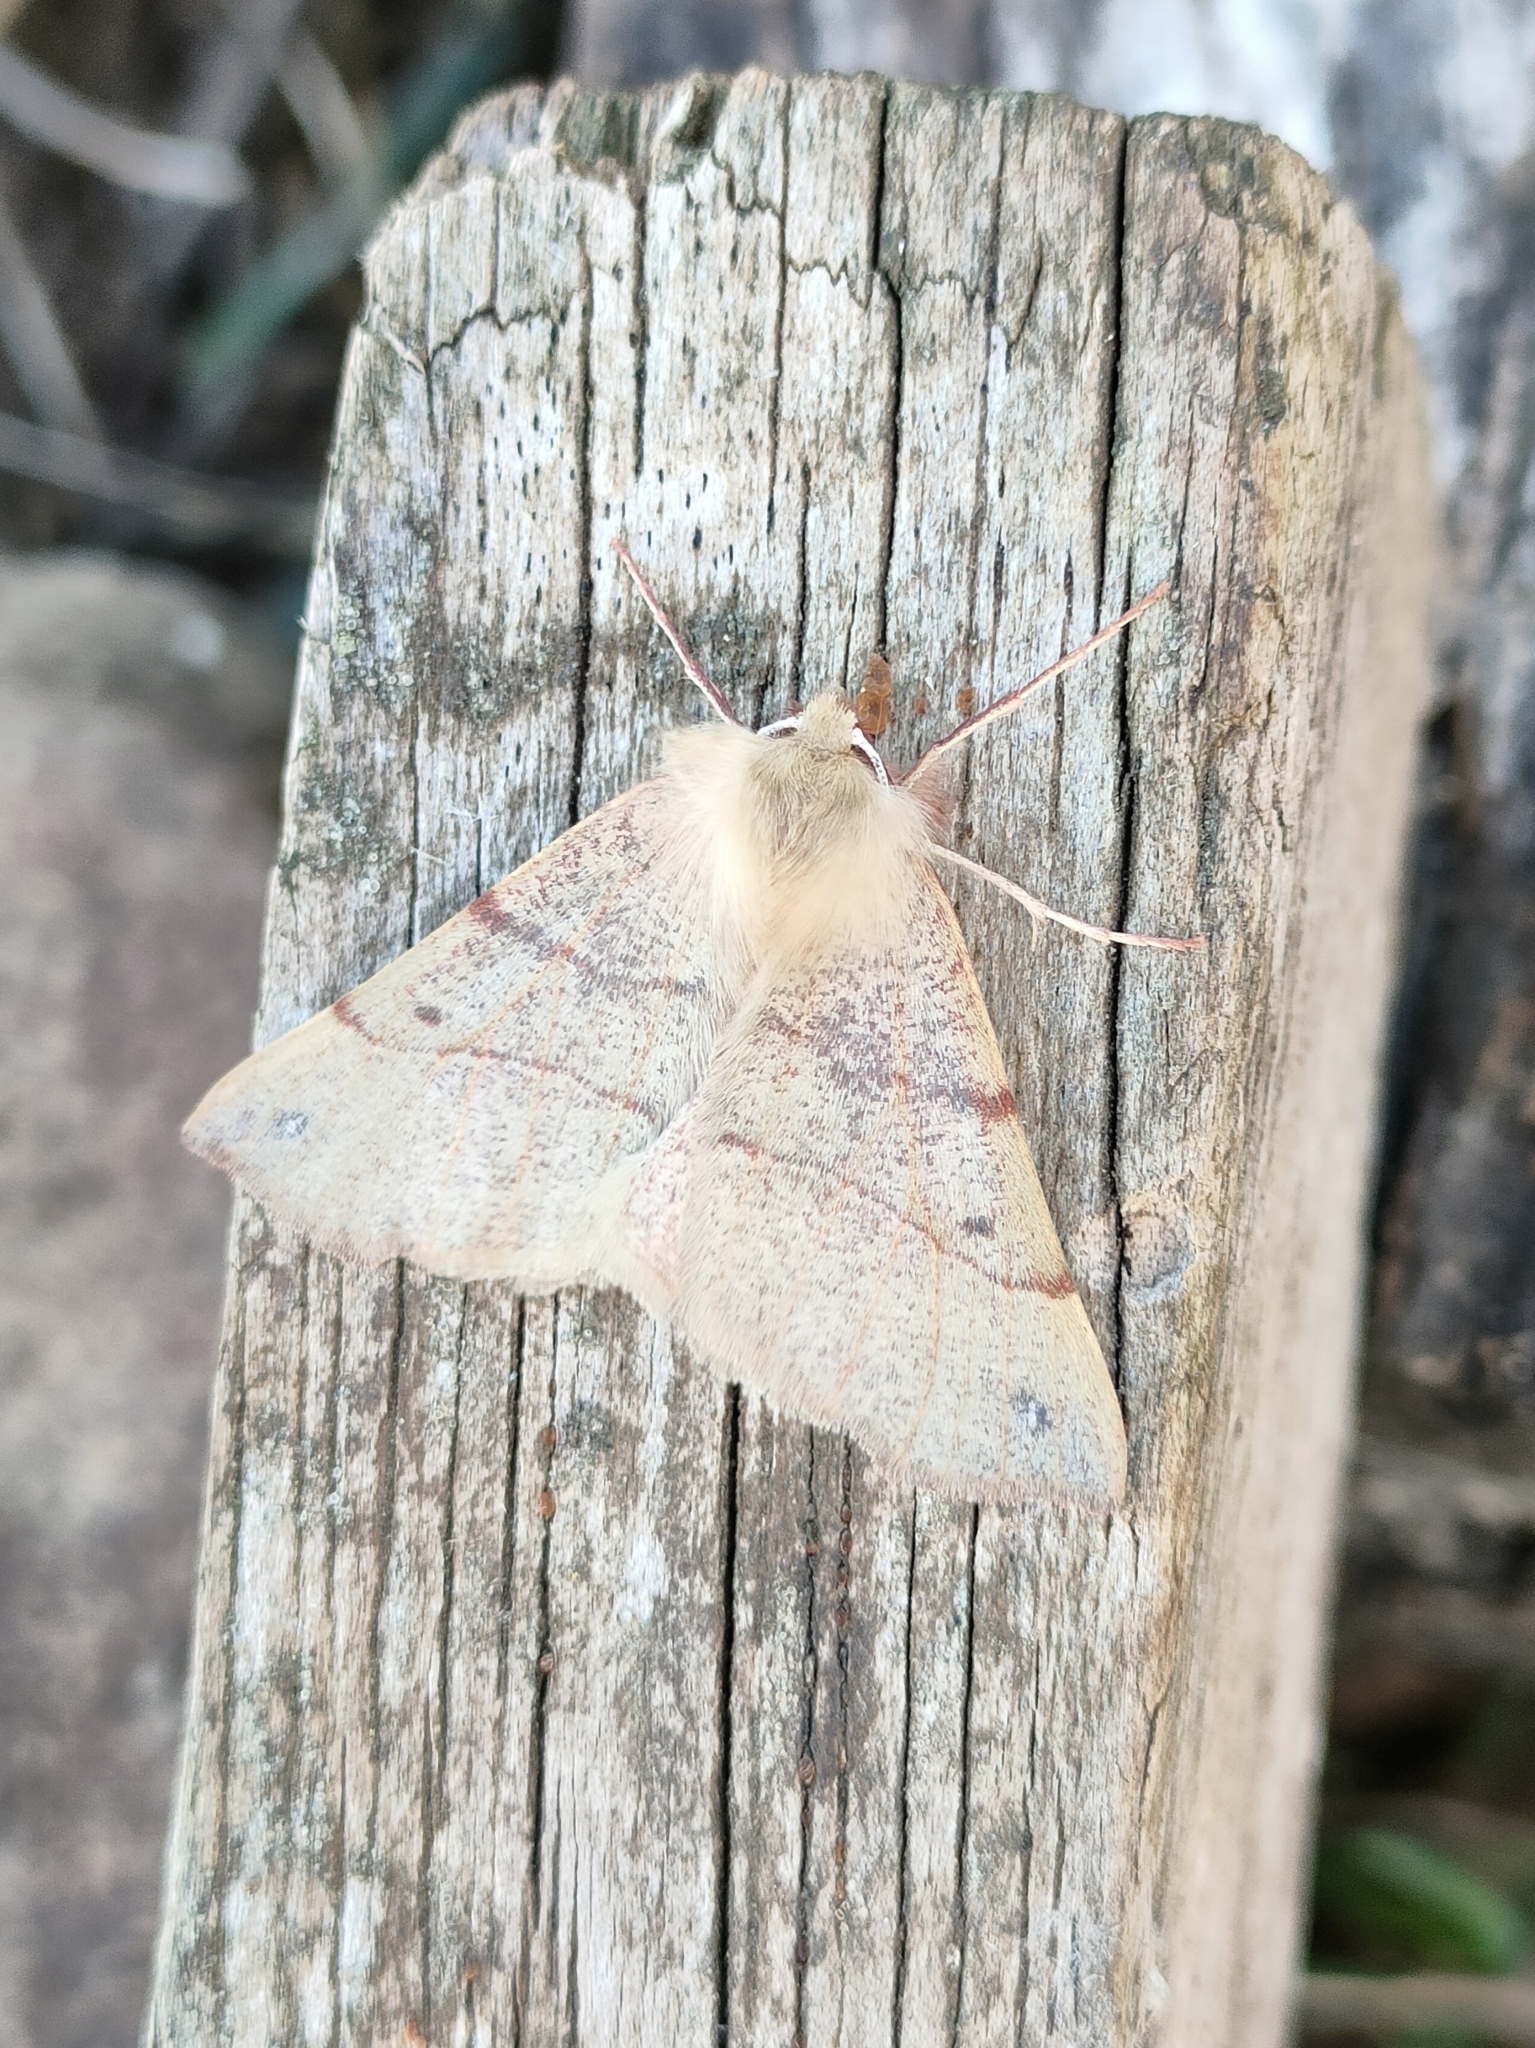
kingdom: Animalia
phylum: Arthropoda
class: Insecta
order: Lepidoptera
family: Geometridae
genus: Colotois
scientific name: Colotois pennaria
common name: Feathered thorn
